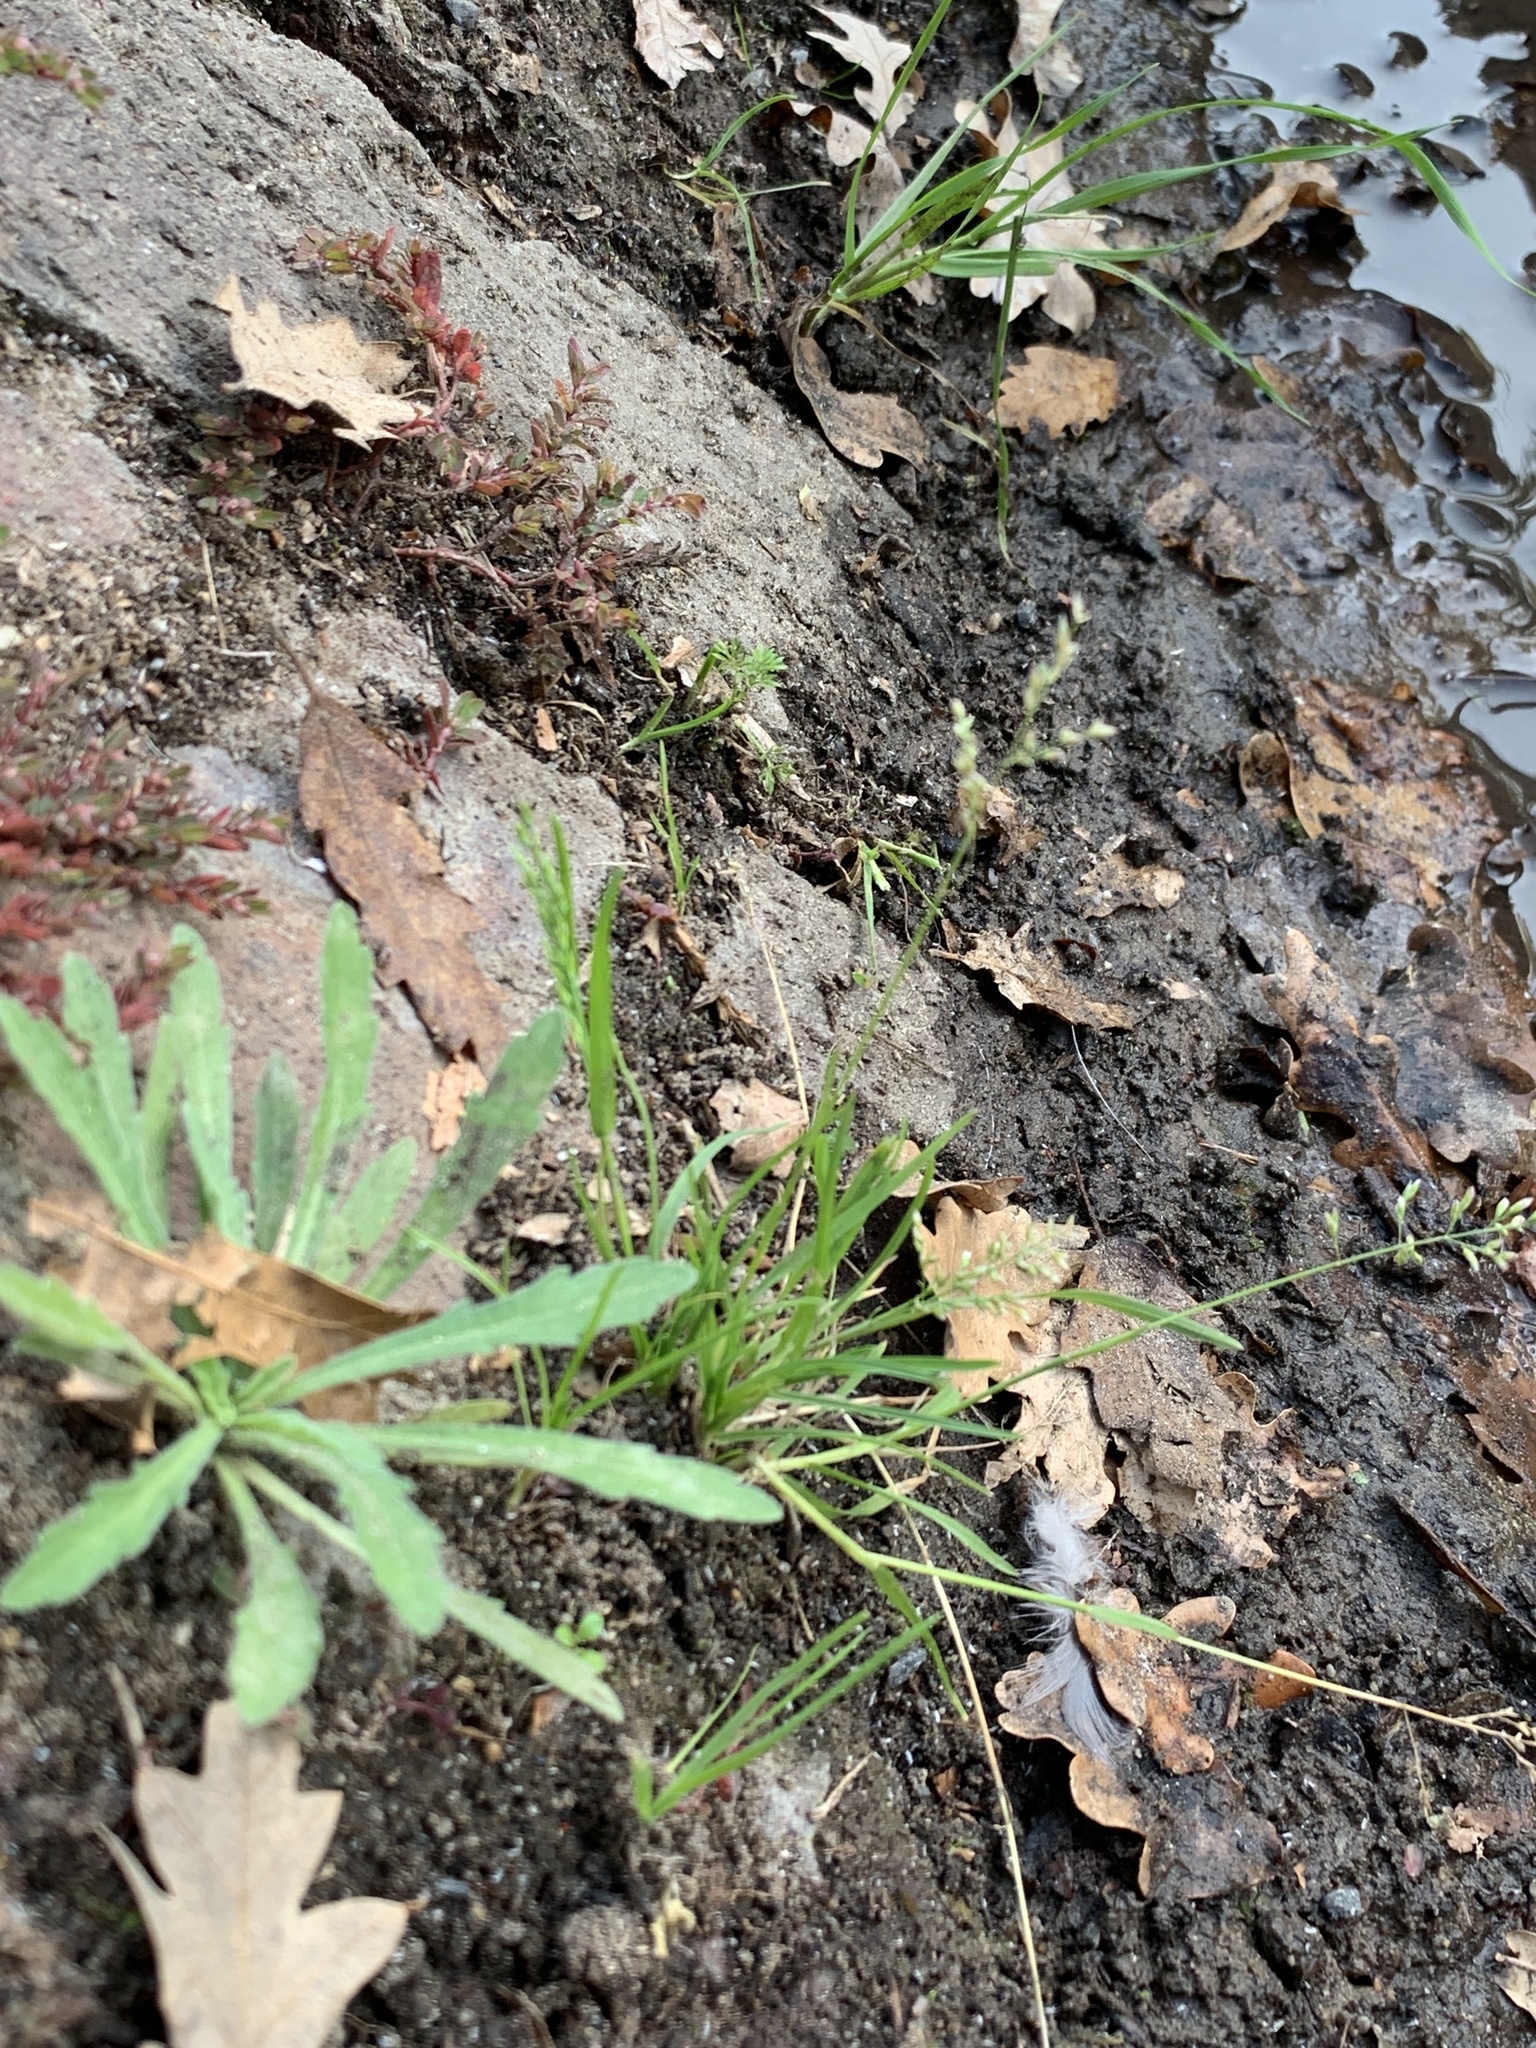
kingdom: Plantae
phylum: Tracheophyta
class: Liliopsida
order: Poales
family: Poaceae
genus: Poa
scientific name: Poa annua
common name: Annual bluegrass
